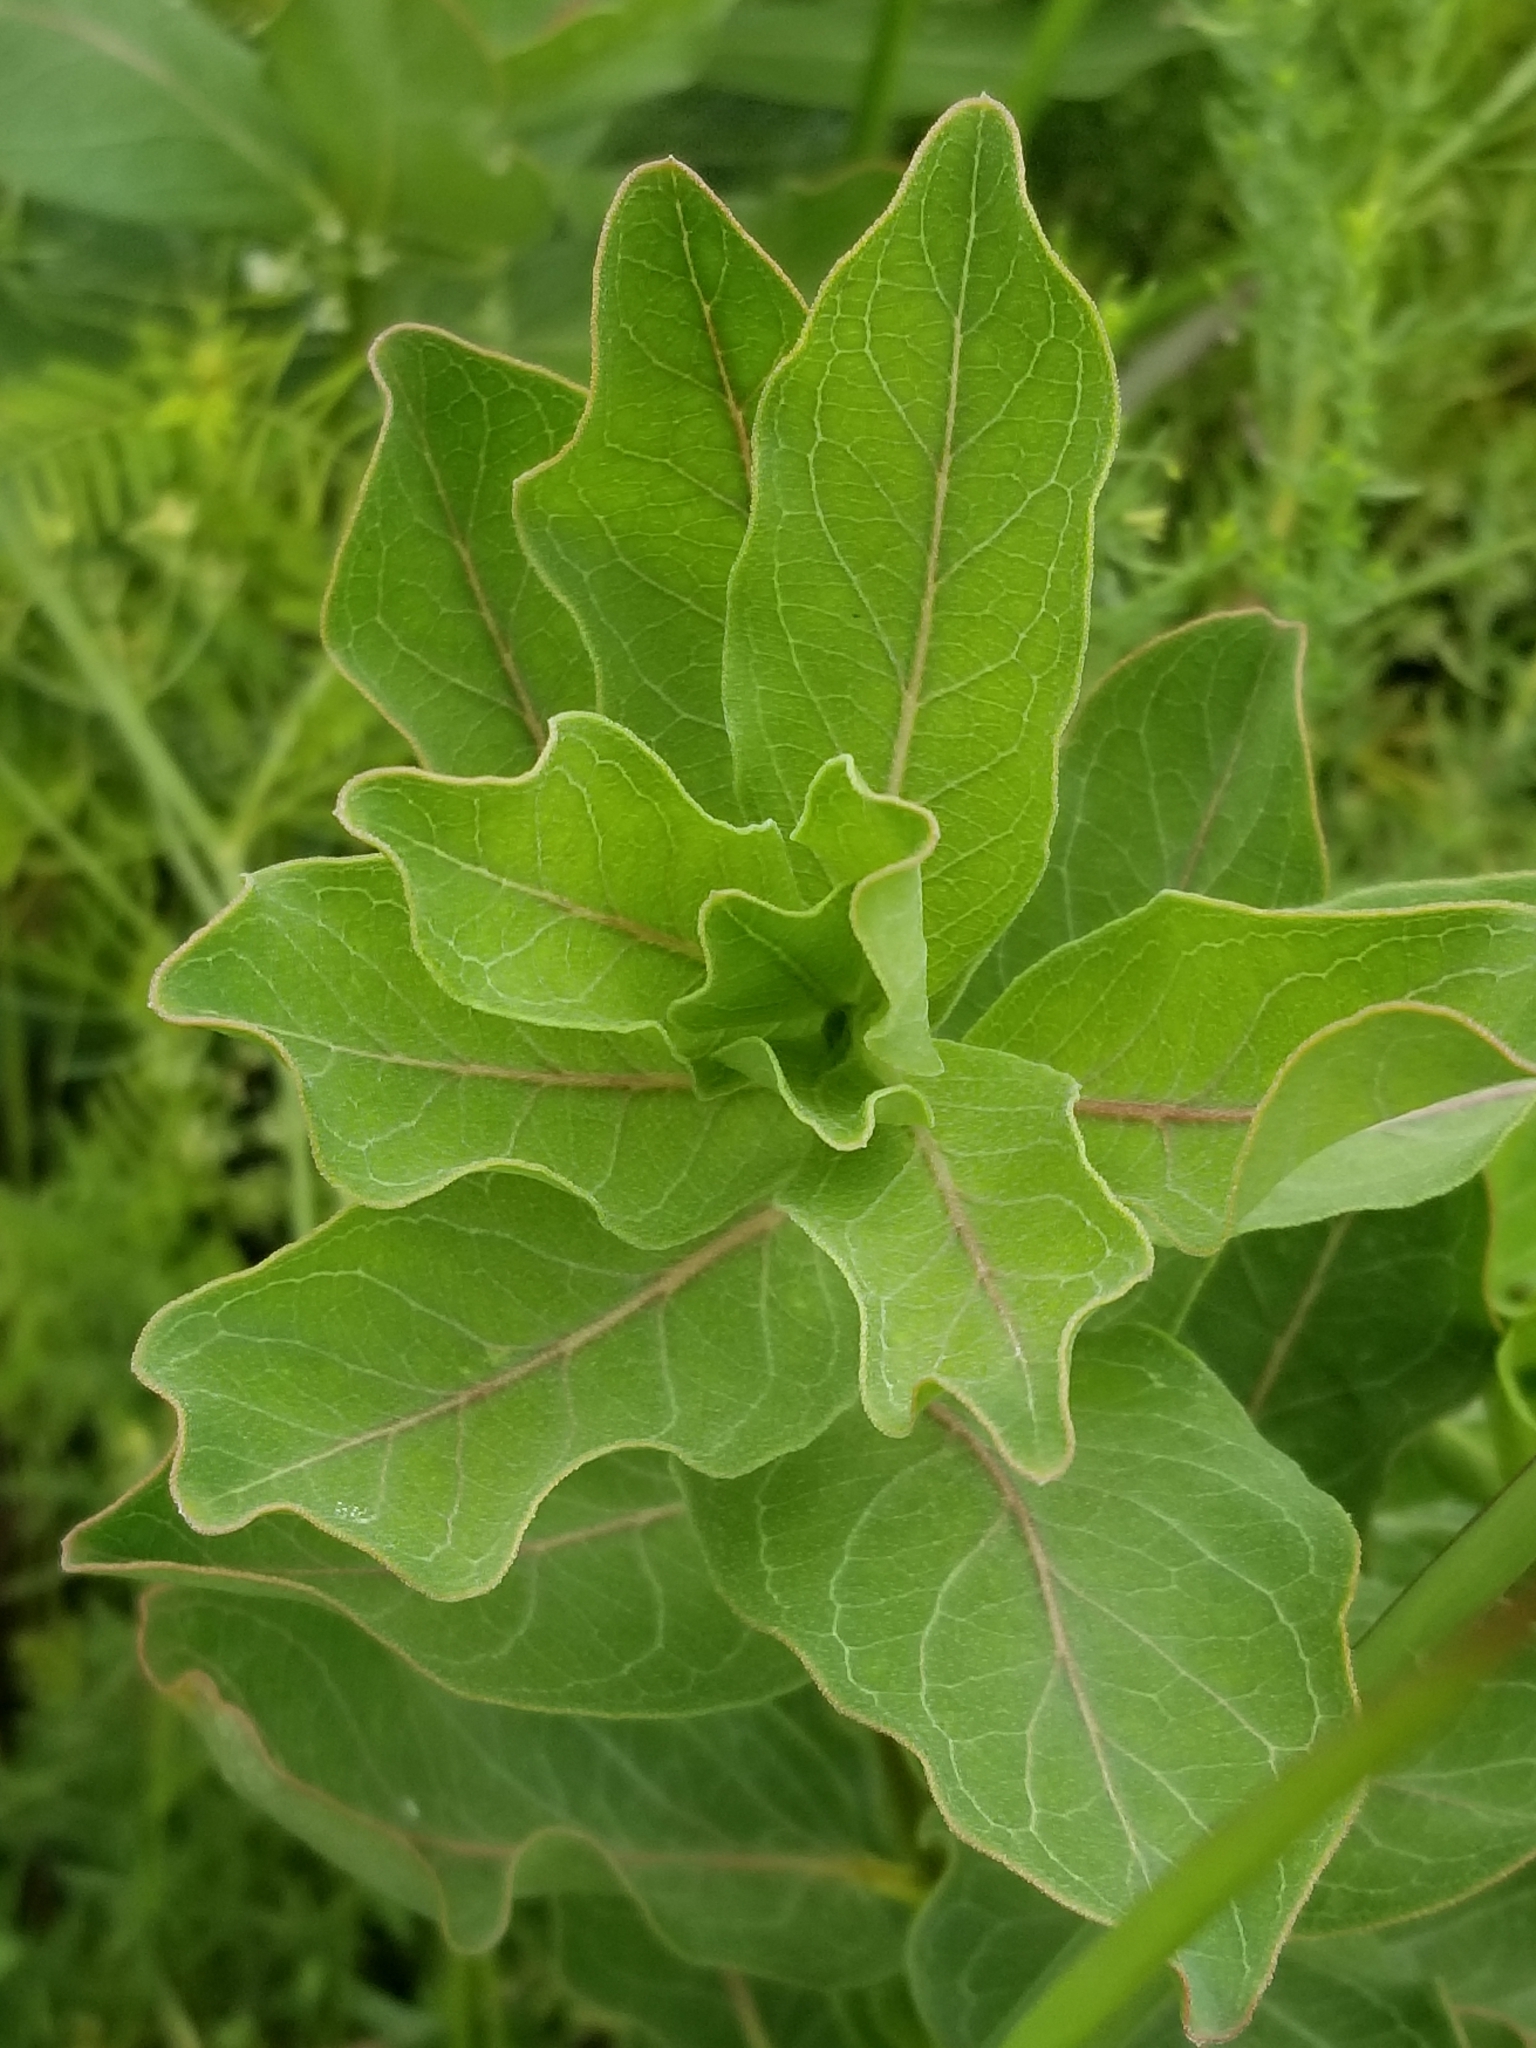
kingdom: Plantae
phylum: Tracheophyta
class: Magnoliopsida
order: Gentianales
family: Apocynaceae
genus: Asclepias
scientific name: Asclepias viridis
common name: Antelope-horns
